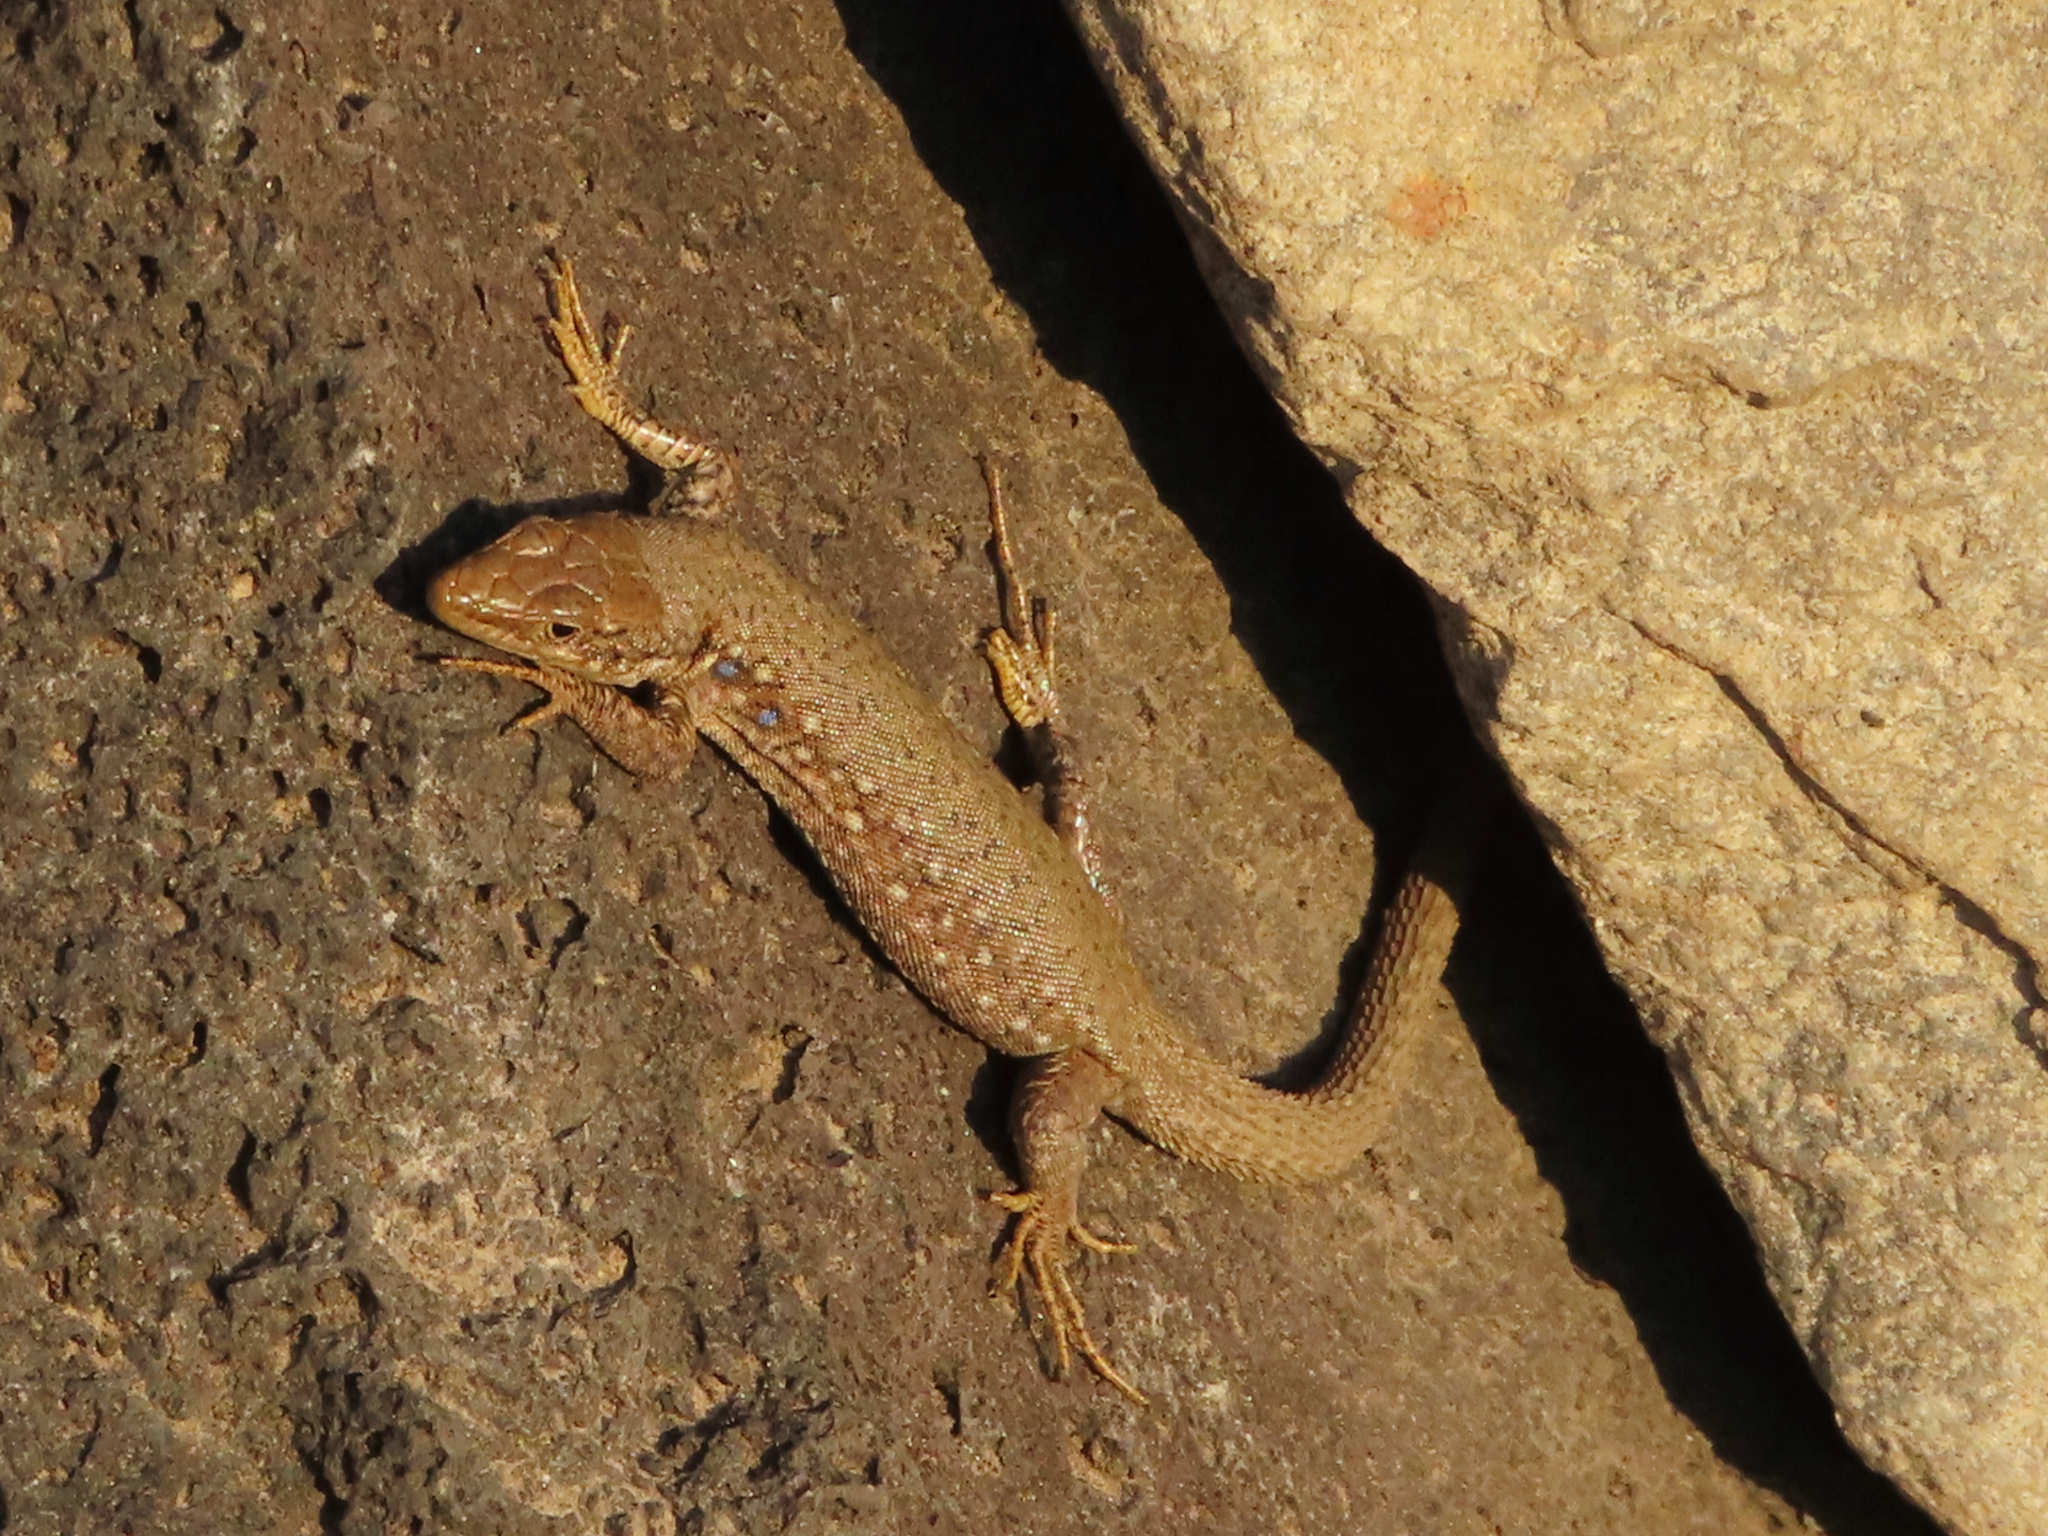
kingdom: Animalia
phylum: Chordata
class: Squamata
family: Lacertidae
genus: Darevskia
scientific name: Darevskia
